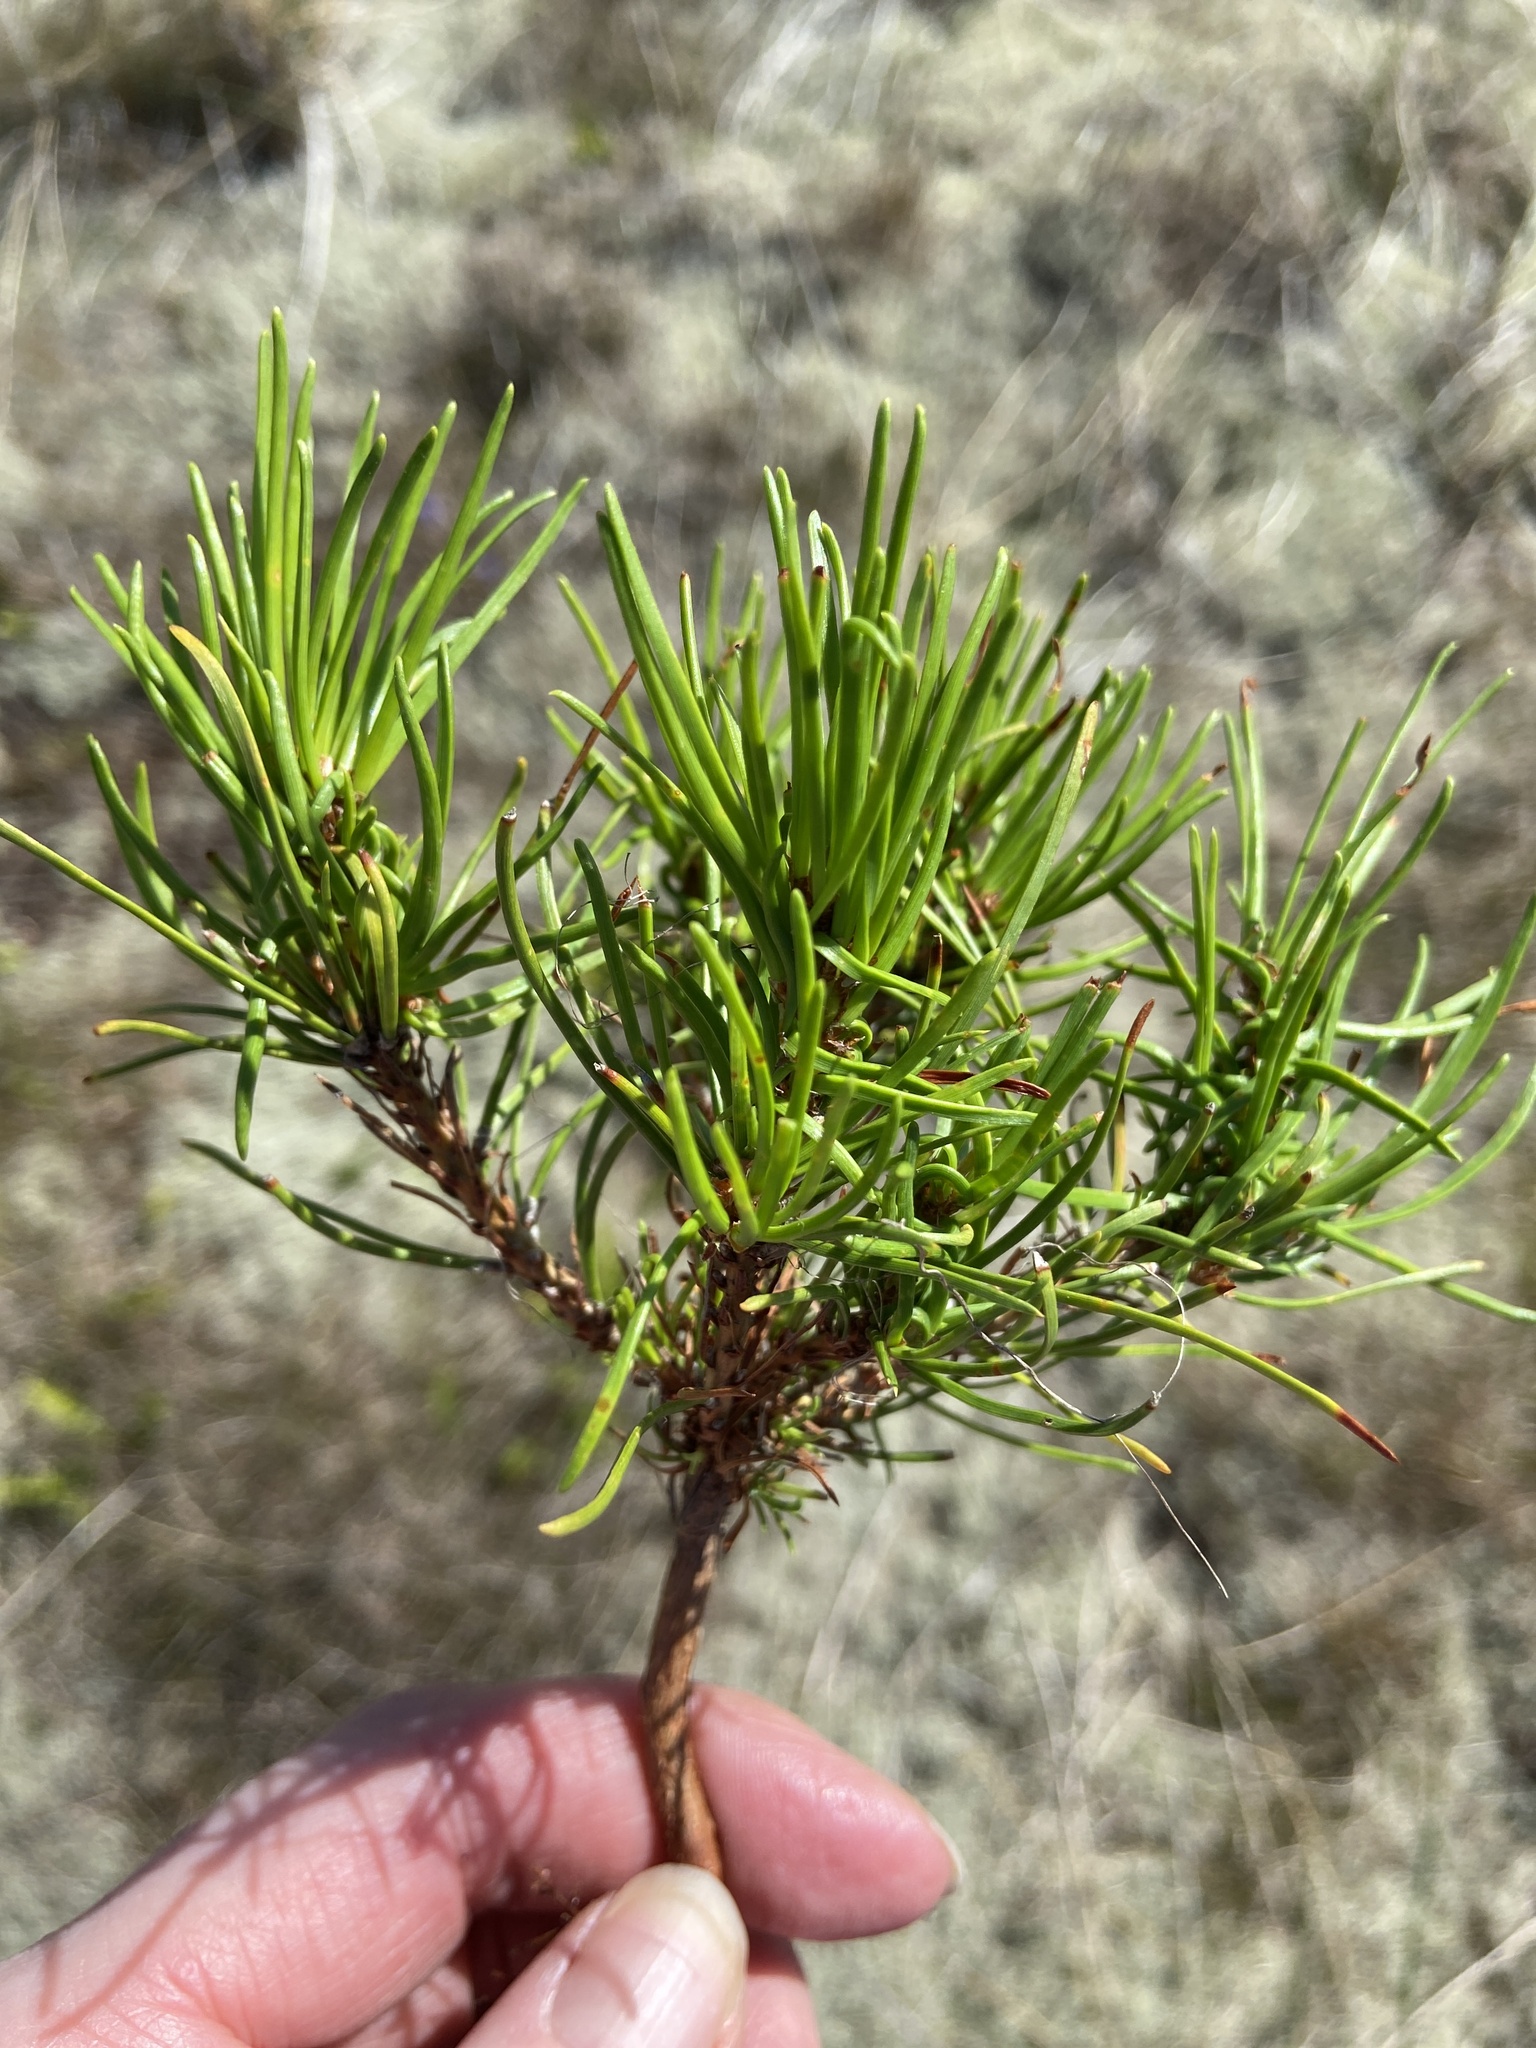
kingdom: Plantae
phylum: Tracheophyta
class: Pinopsida
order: Pinales
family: Pinaceae
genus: Pinus
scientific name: Pinus mugo
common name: Mugo pine
